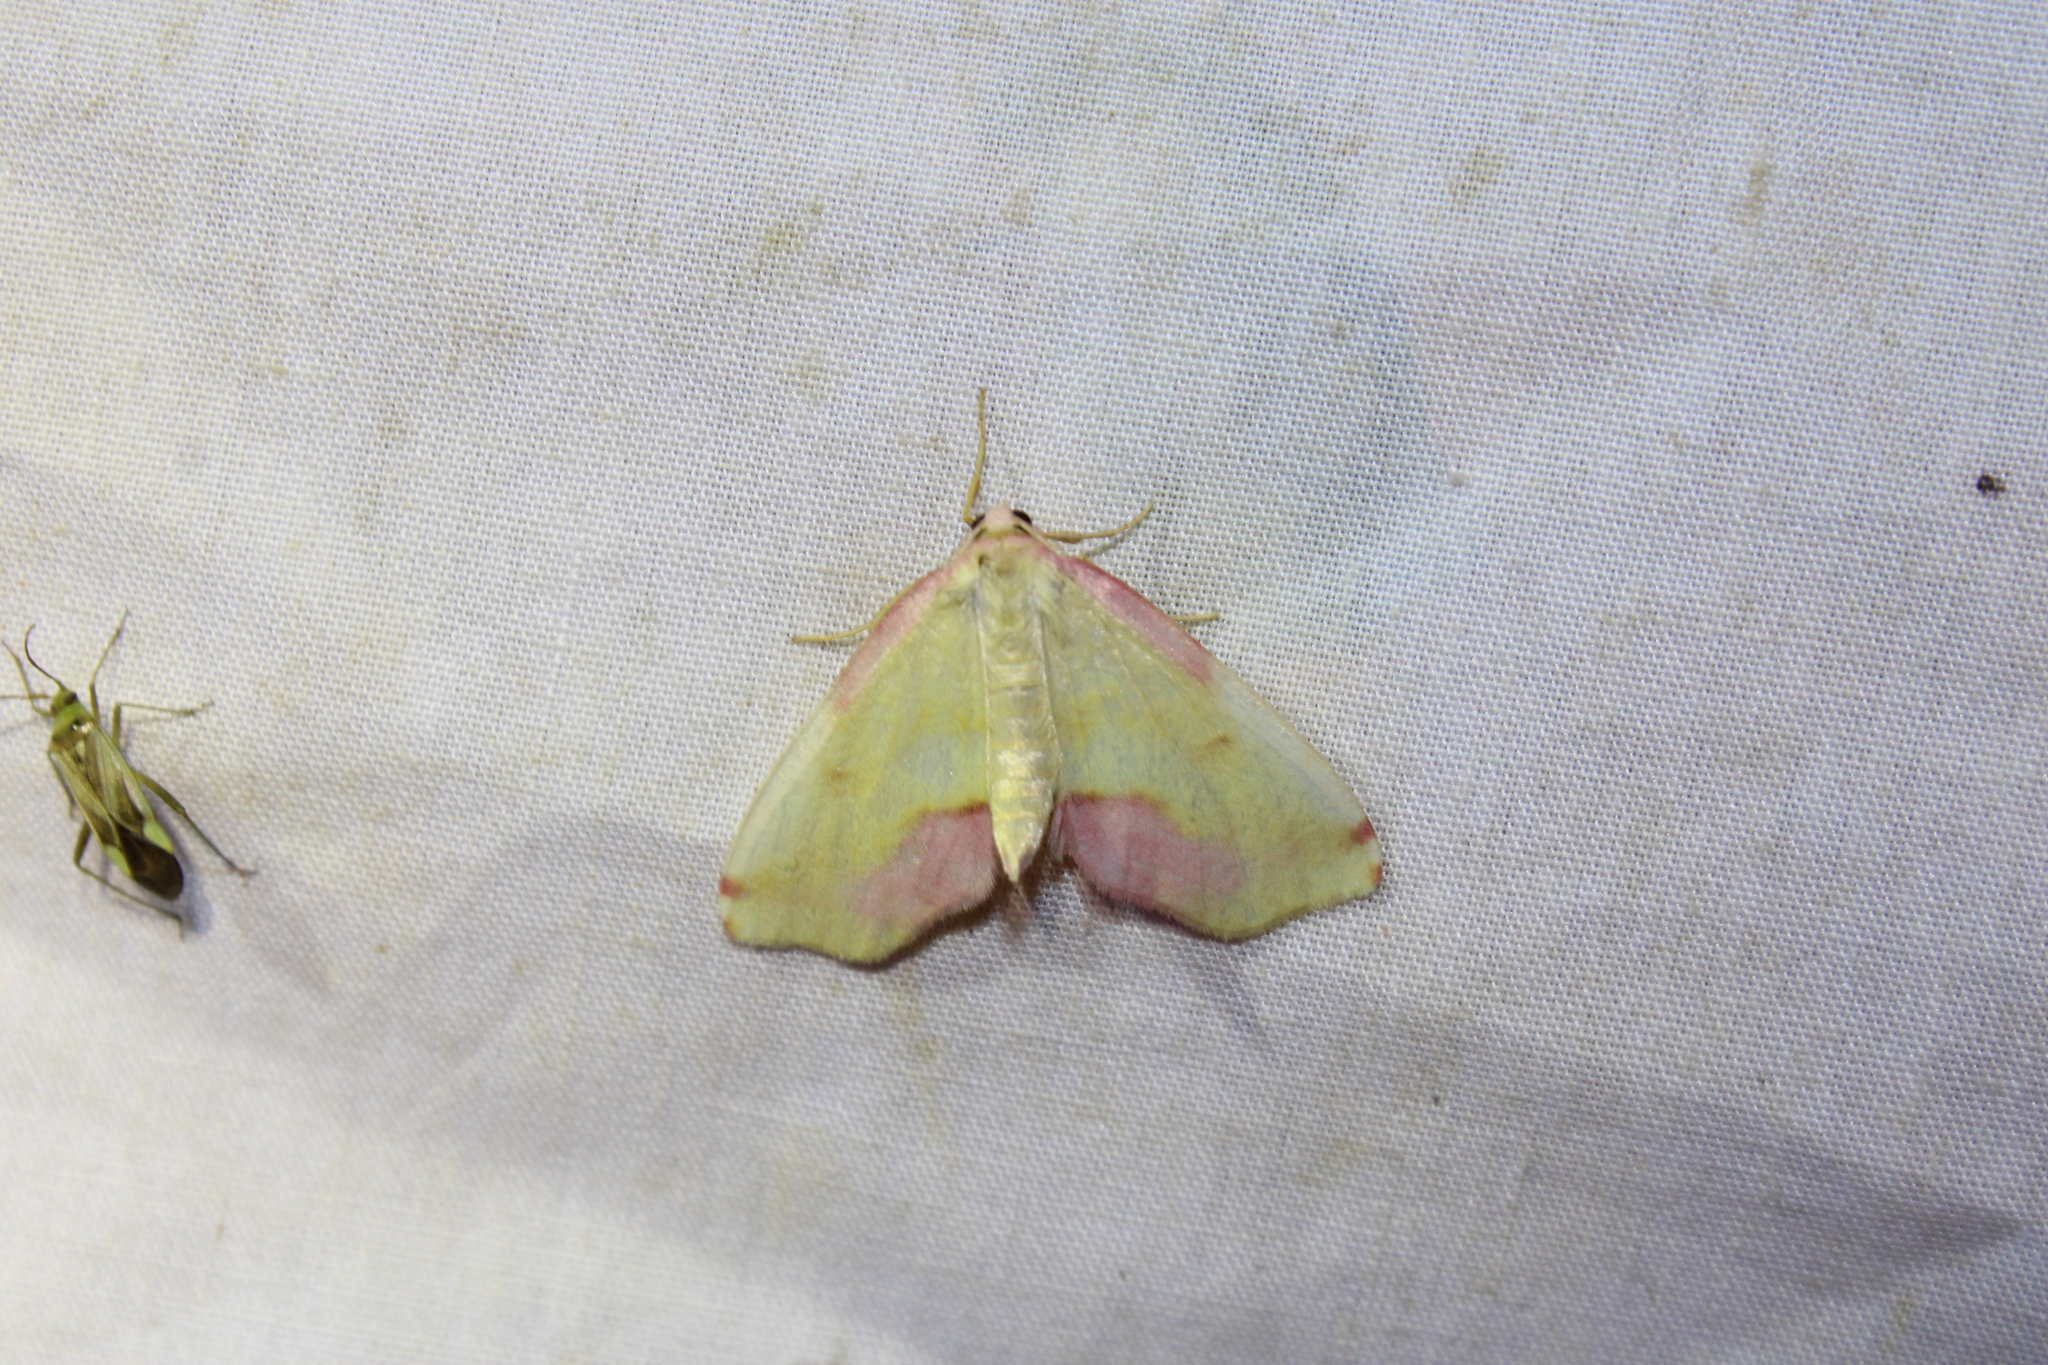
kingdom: Animalia
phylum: Arthropoda
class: Insecta
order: Lepidoptera
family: Geometridae
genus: Plagodis
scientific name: Plagodis serinaria
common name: Lemon plagodis
